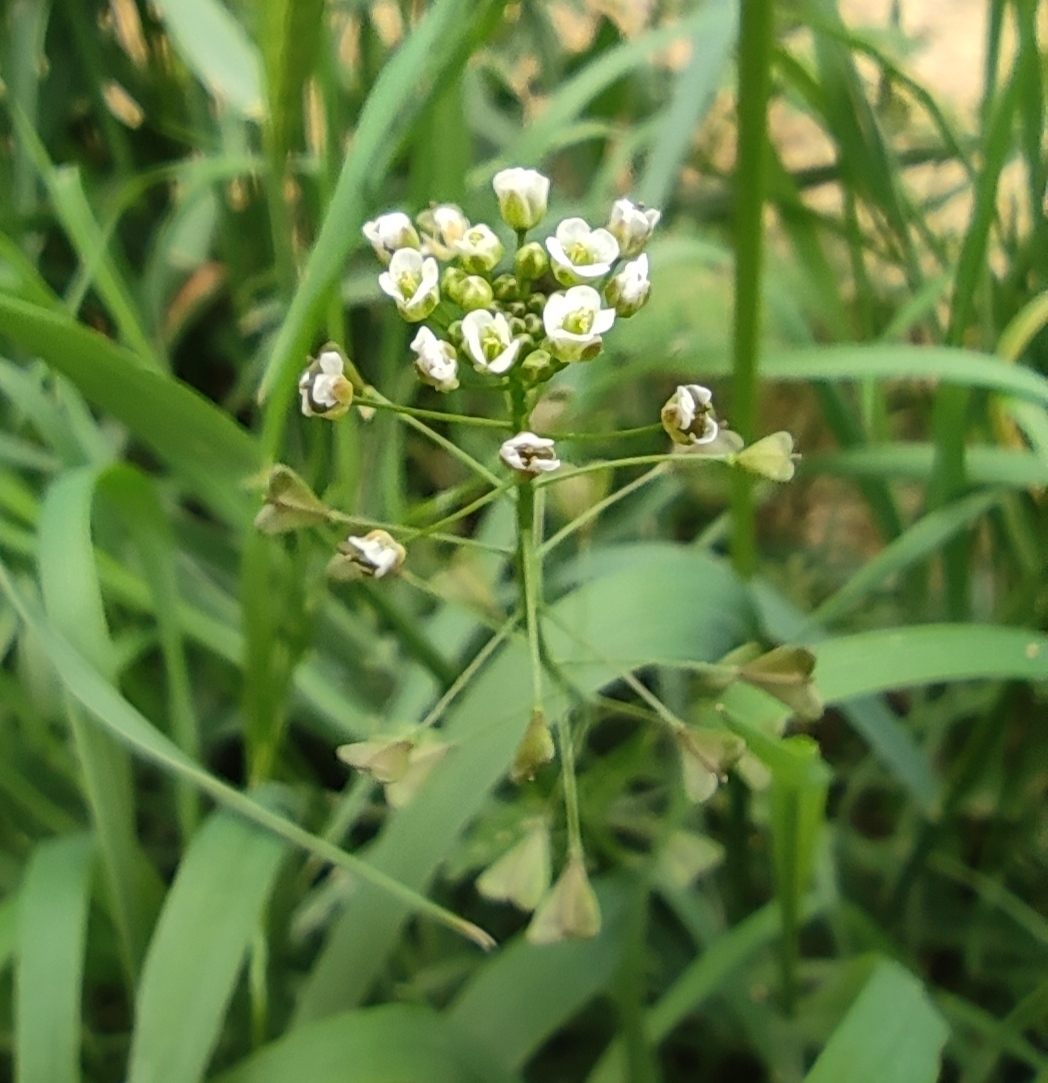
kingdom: Plantae
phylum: Tracheophyta
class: Magnoliopsida
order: Brassicales
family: Brassicaceae
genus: Capsella
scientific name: Capsella bursa-pastoris
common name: Shepherd's purse
